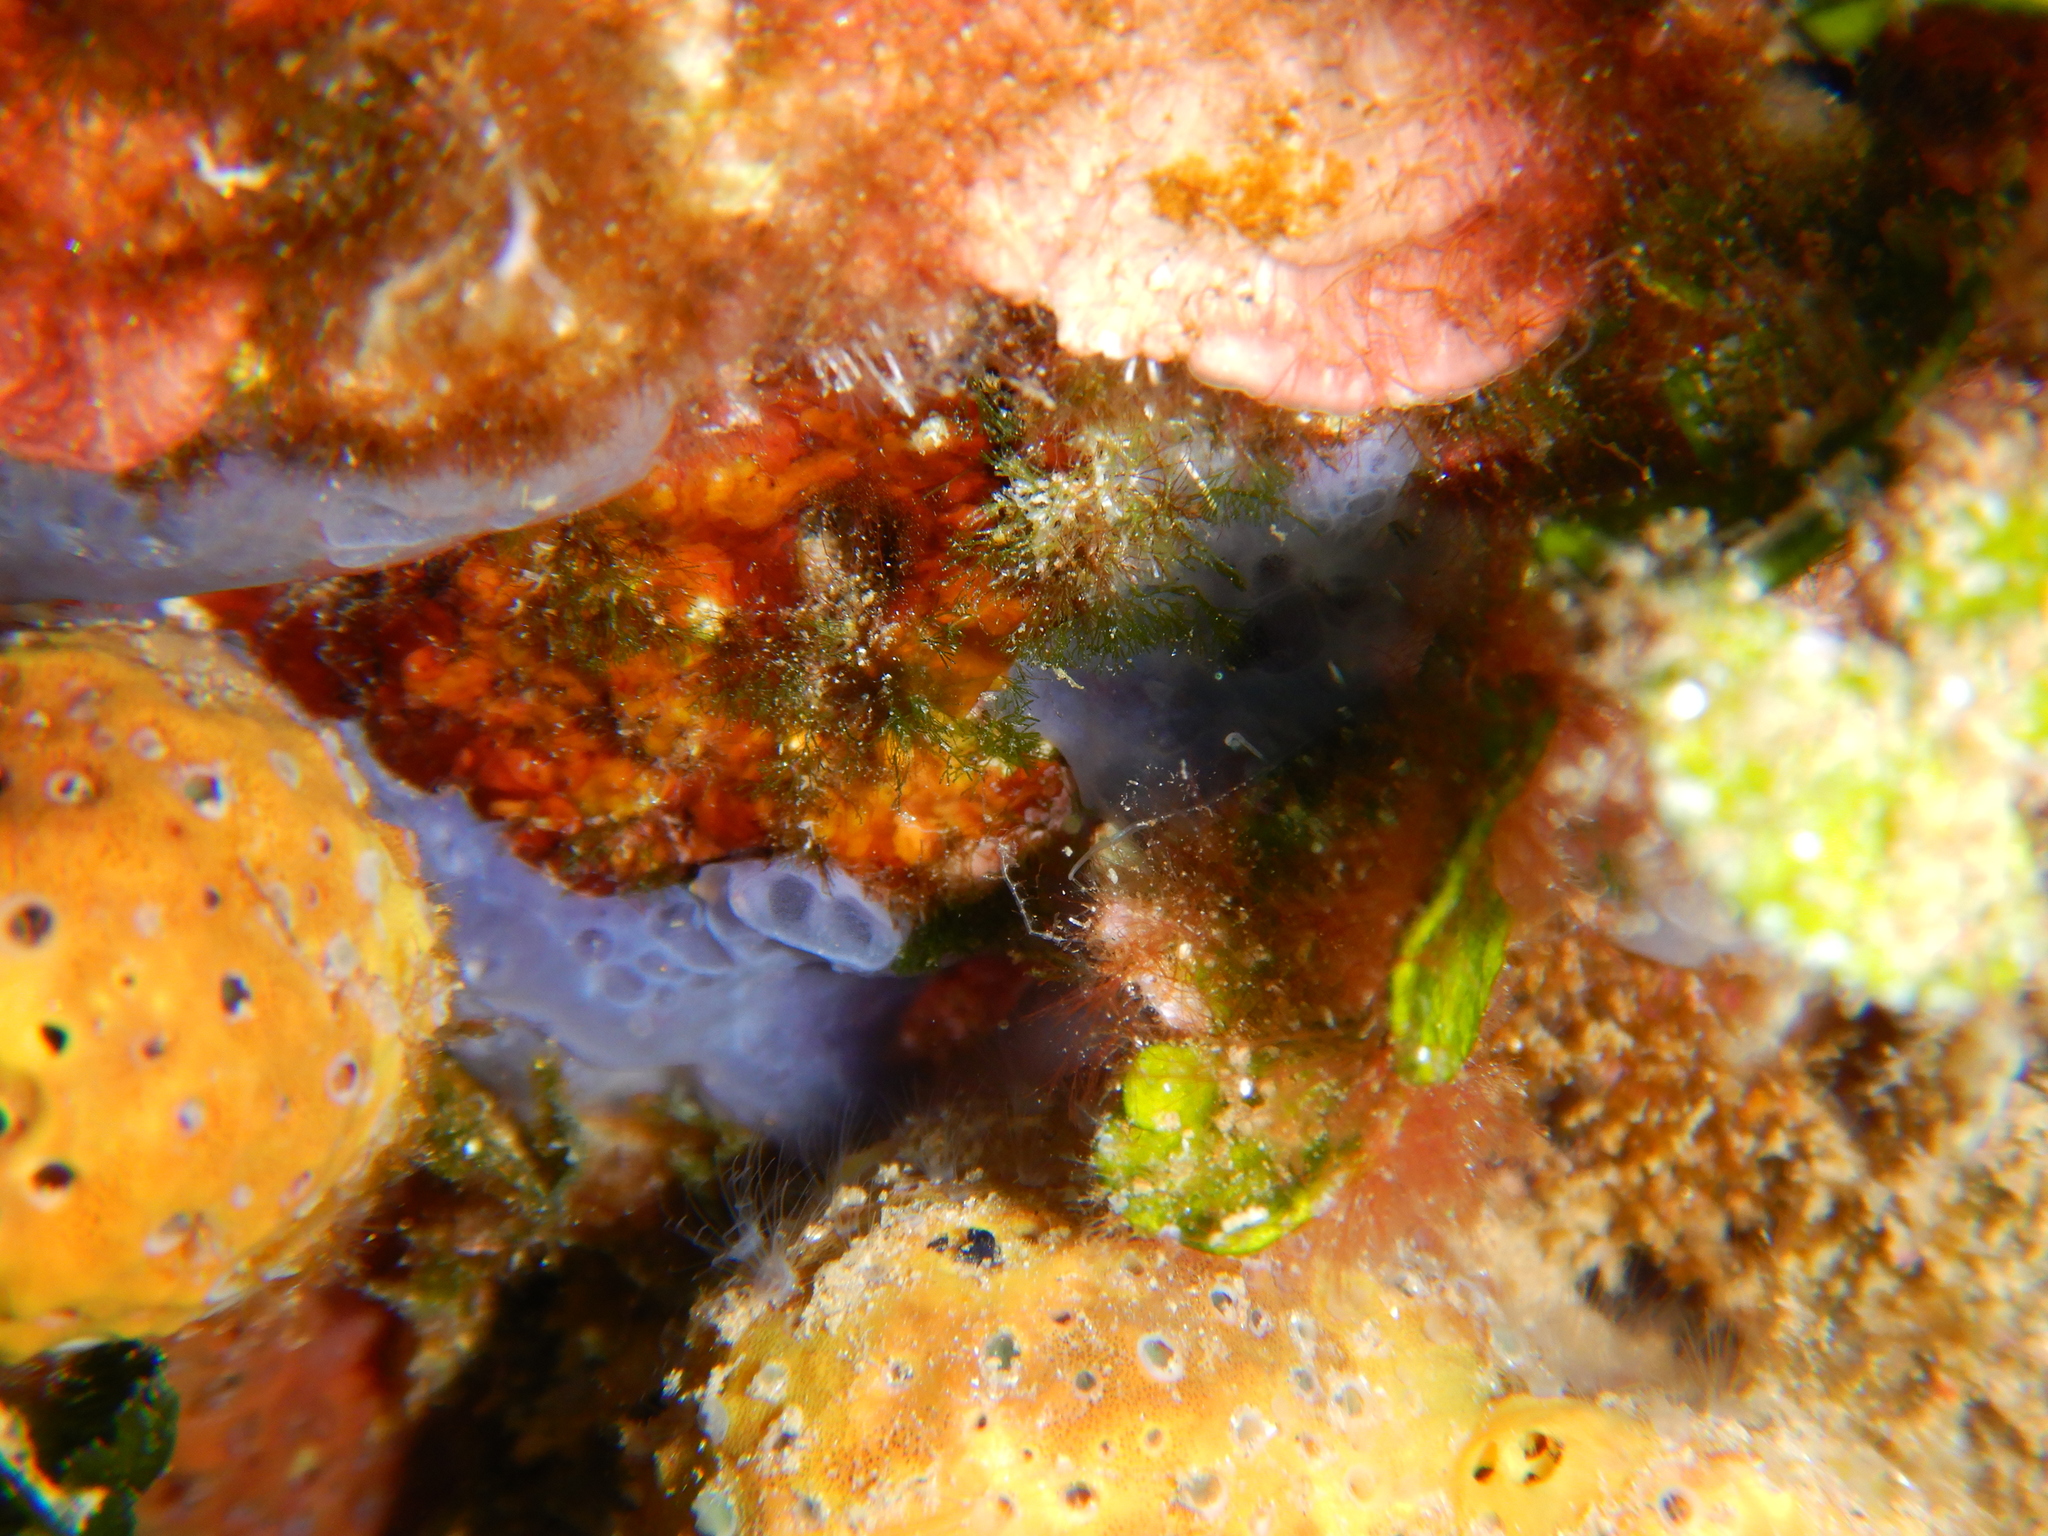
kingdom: Animalia
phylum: Porifera
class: Demospongiae
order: Poecilosclerida
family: Hymedesmiidae
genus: Phorbas
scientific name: Phorbas tenacior
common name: Bluish encrusting sponge
